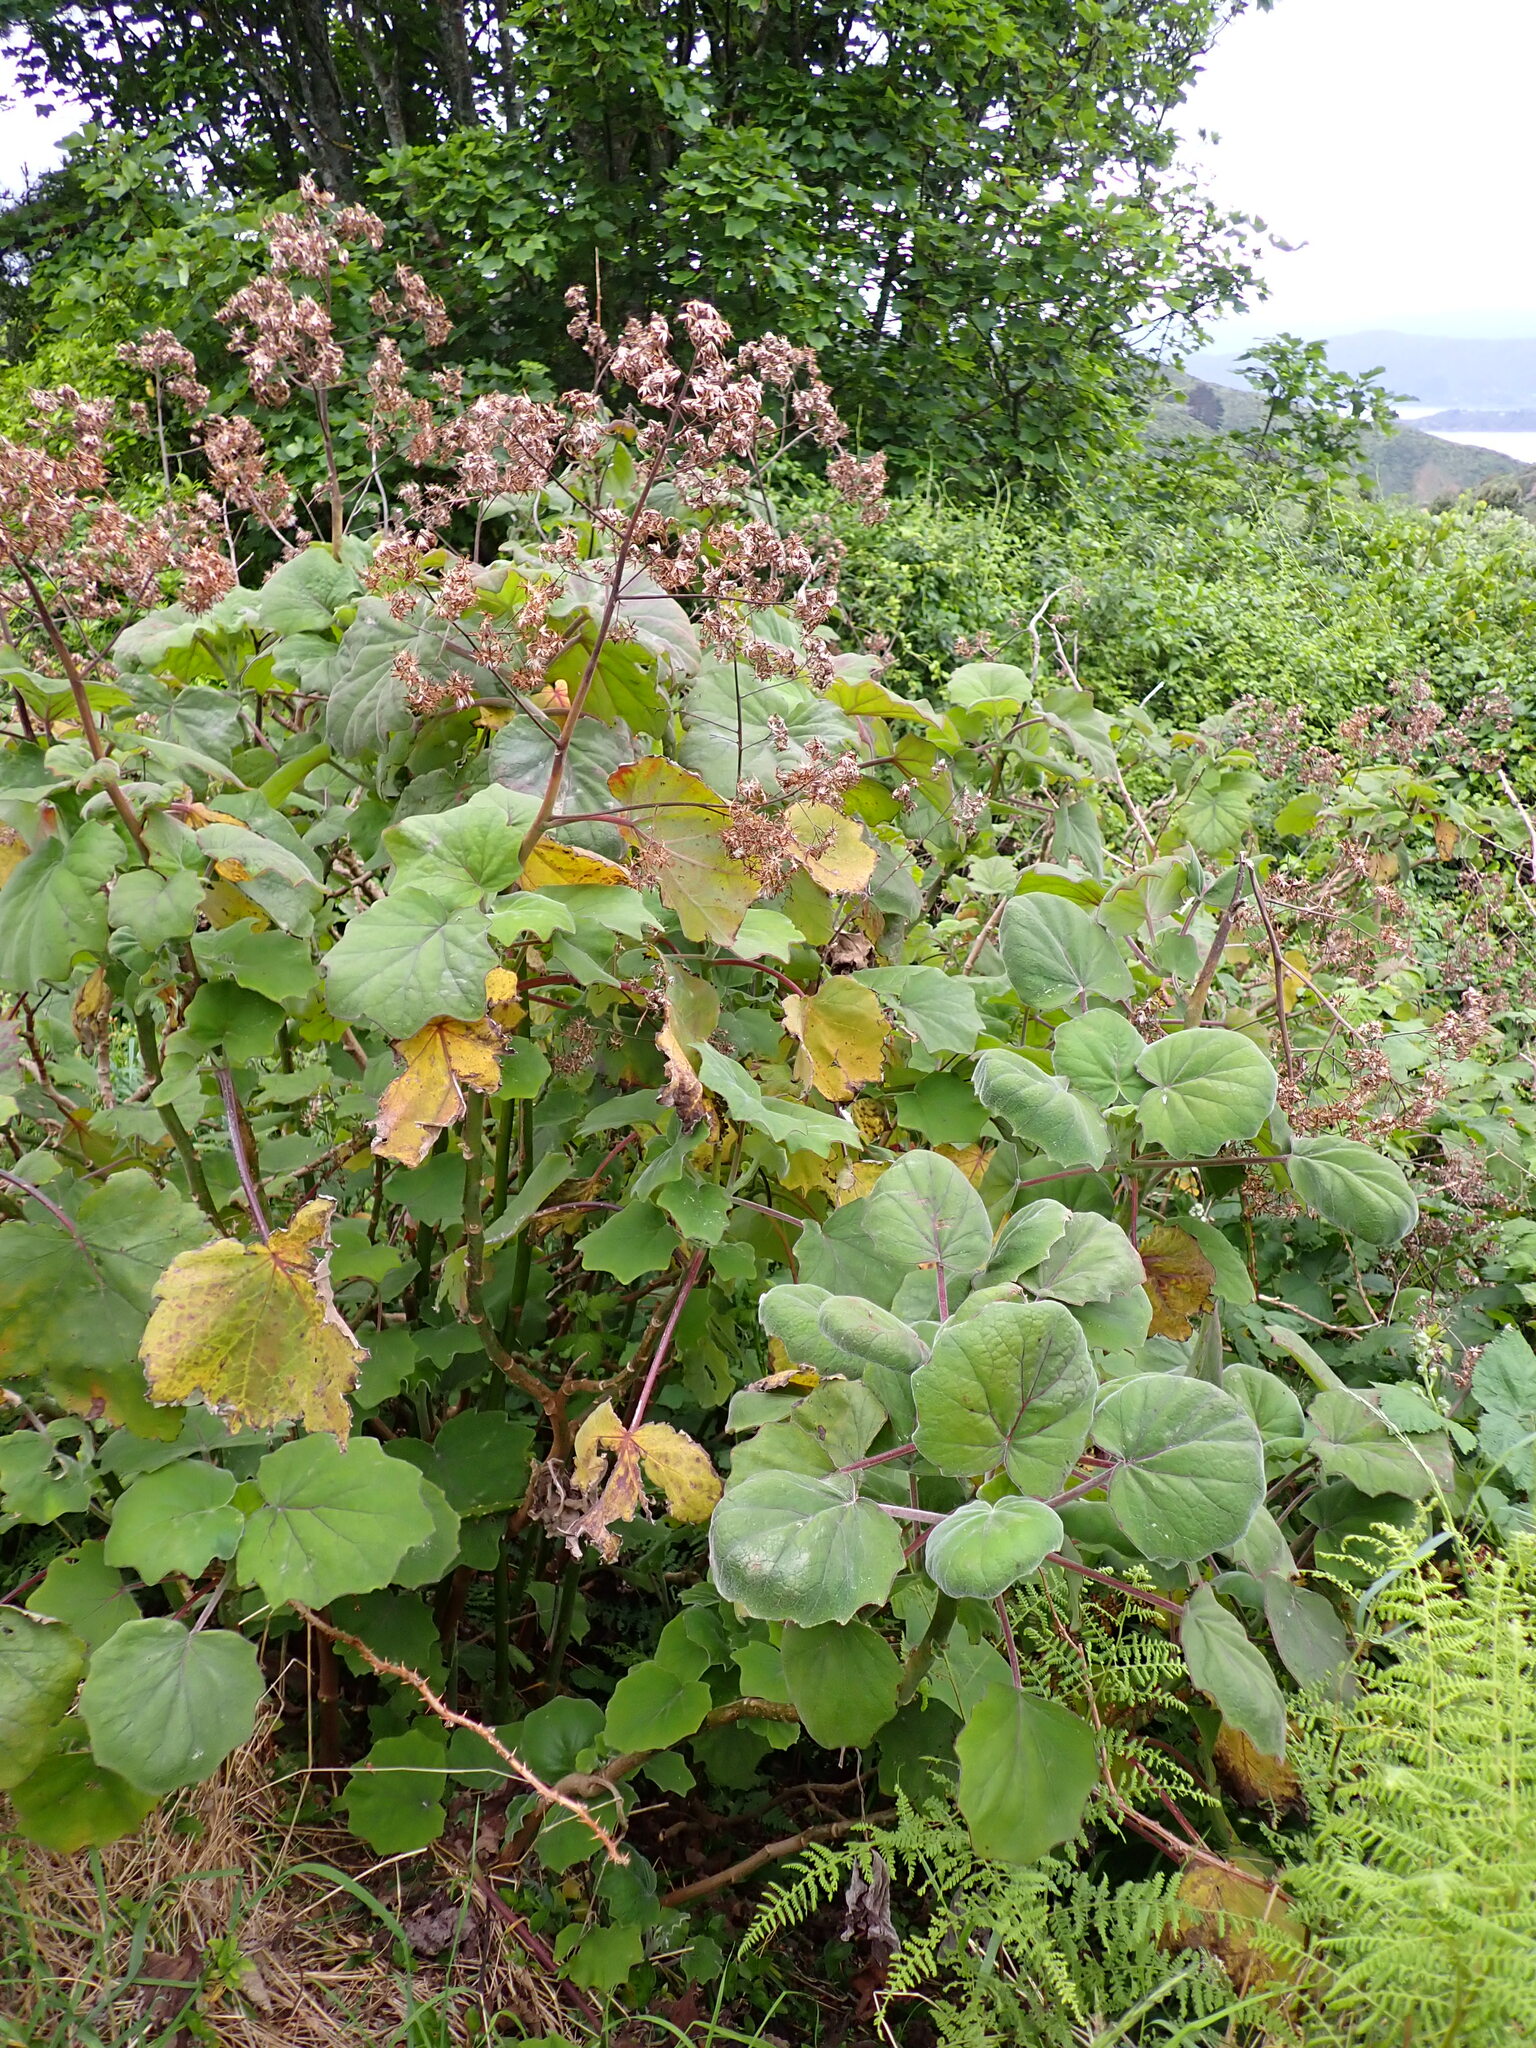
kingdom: Plantae
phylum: Tracheophyta
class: Magnoliopsida
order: Asterales
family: Asteraceae
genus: Roldana
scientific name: Roldana petasitis
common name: California-geranium
